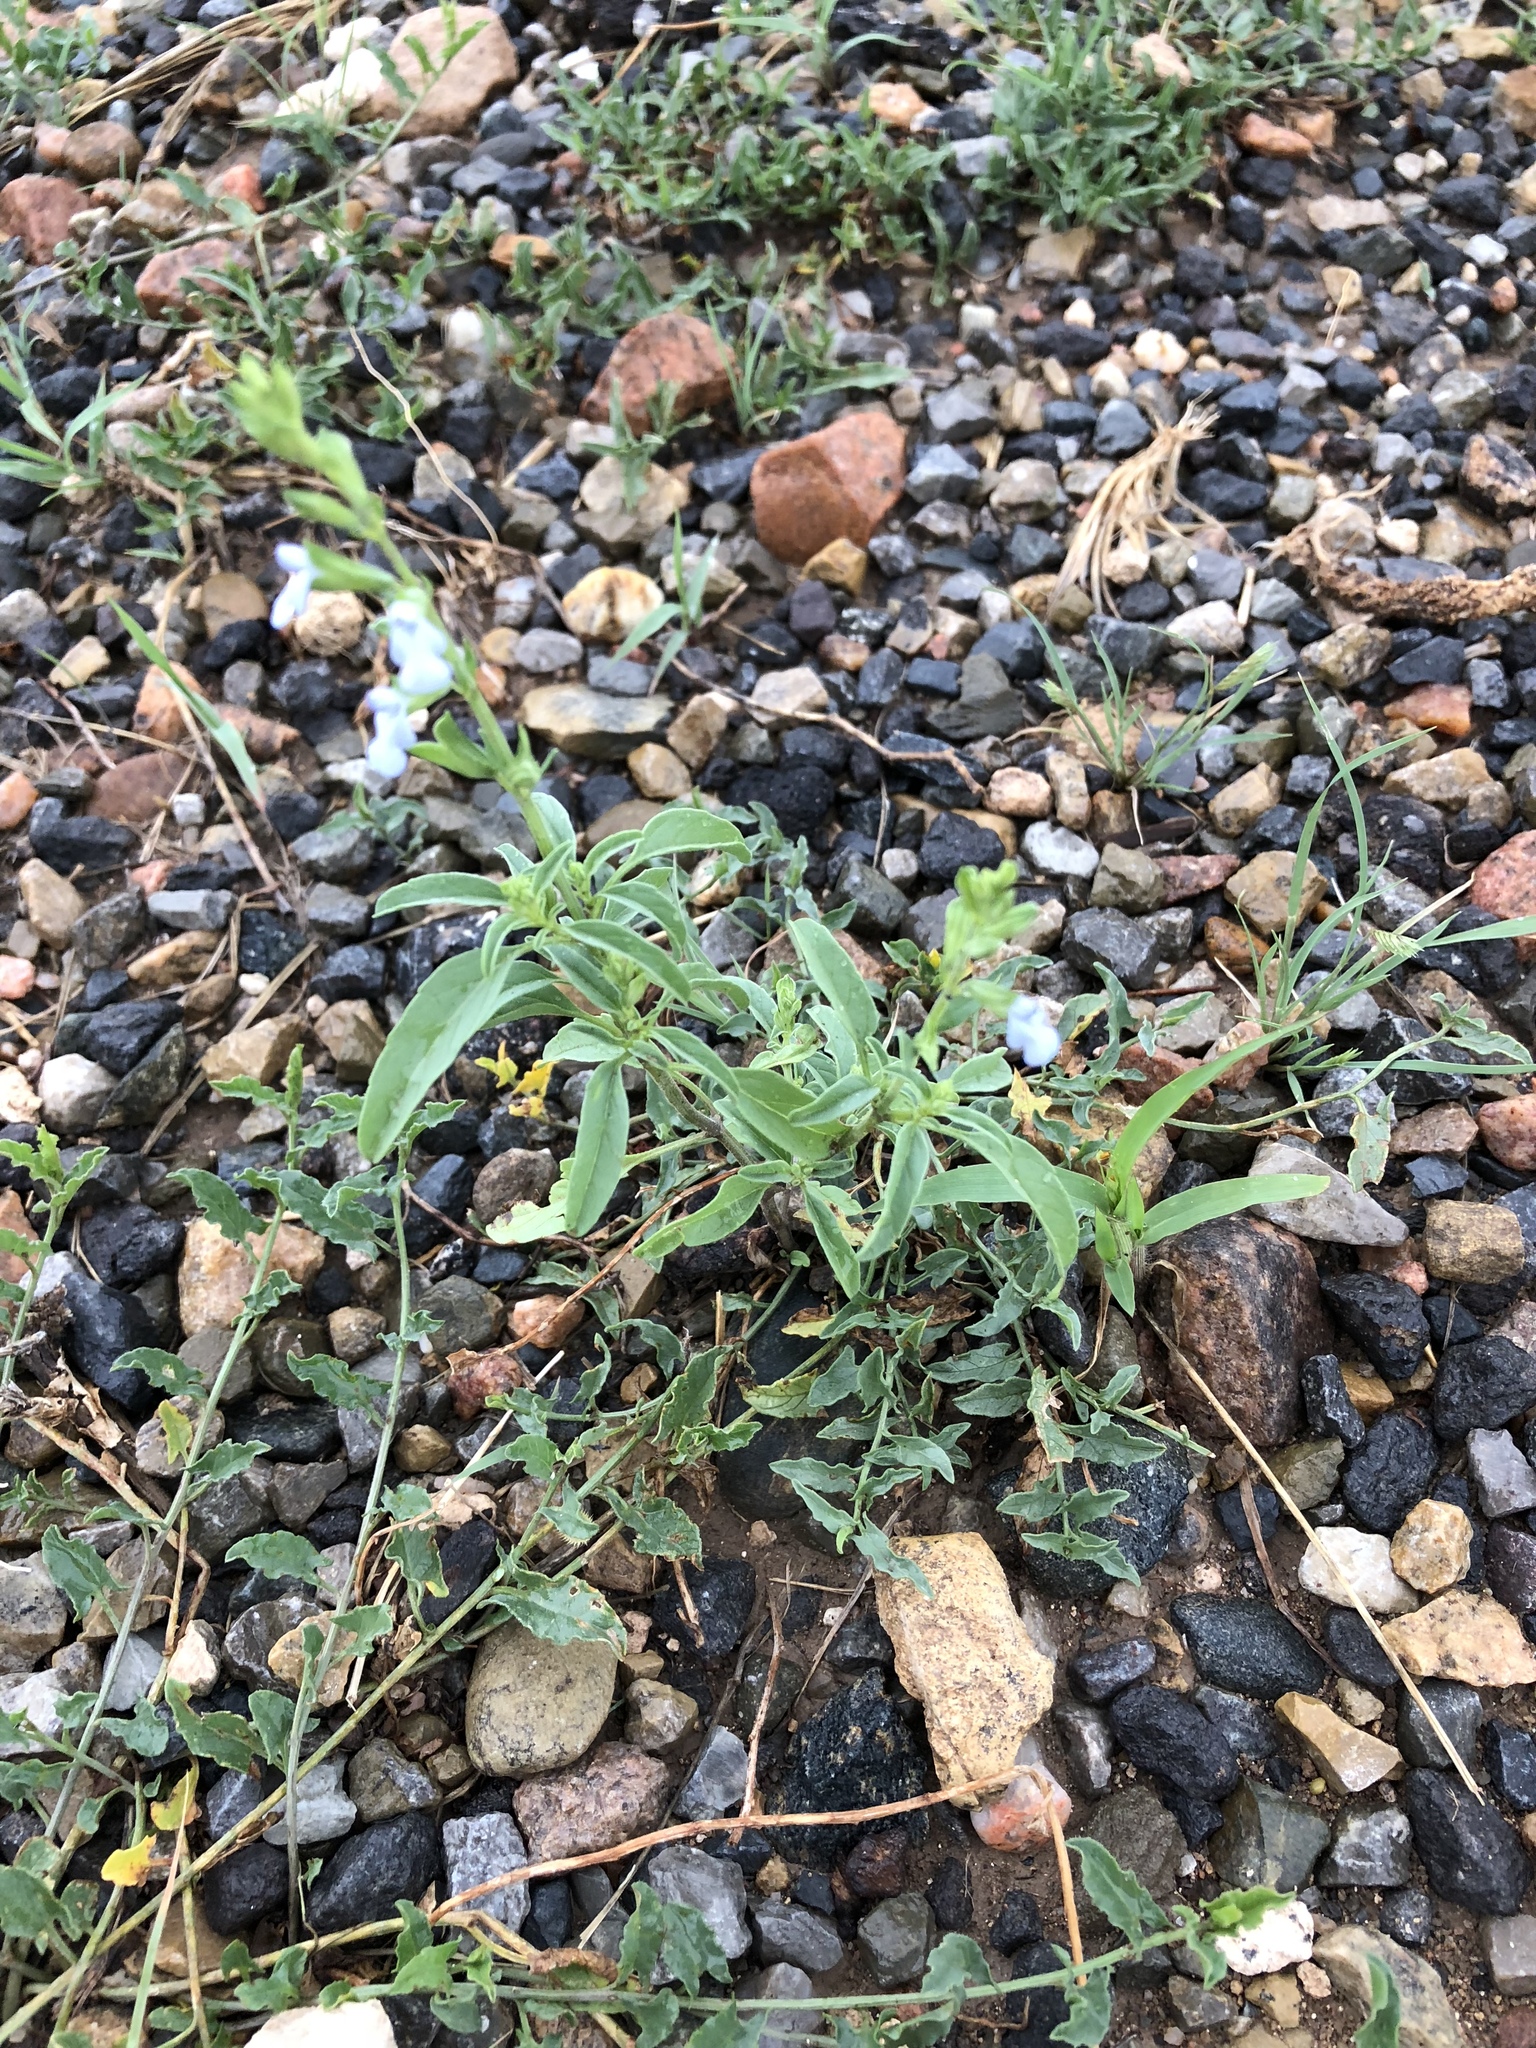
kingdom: Plantae
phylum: Tracheophyta
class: Magnoliopsida
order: Lamiales
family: Lamiaceae
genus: Salvia
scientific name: Salvia reflexa
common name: Mintweed
